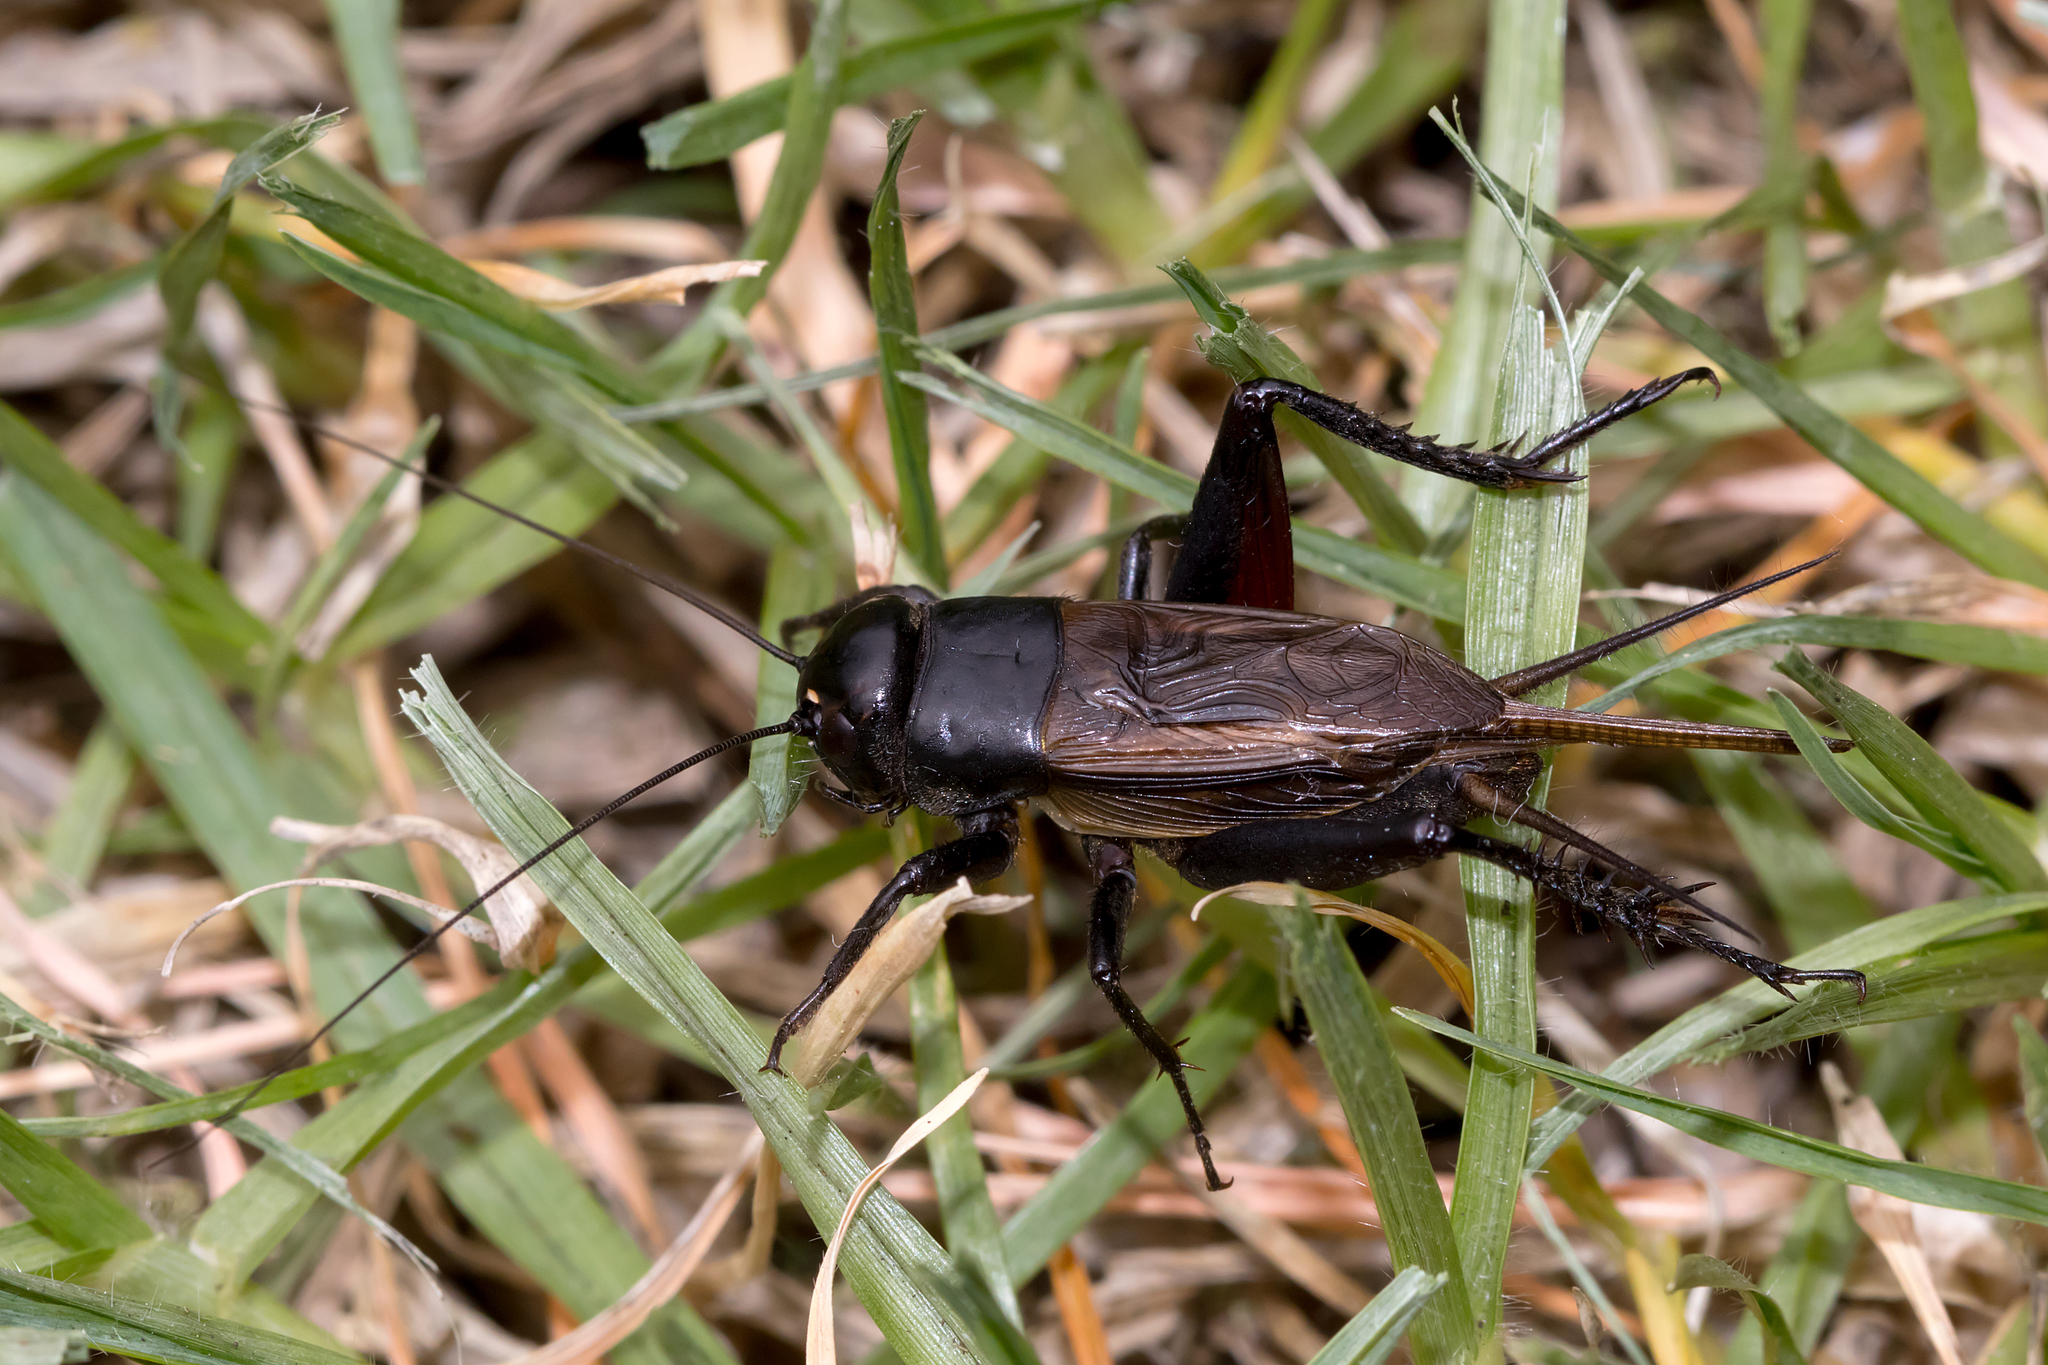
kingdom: Animalia
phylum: Arthropoda
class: Insecta
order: Orthoptera
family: Gryllidae
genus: Teleogryllus
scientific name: Teleogryllus commodus
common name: Black field cricket
